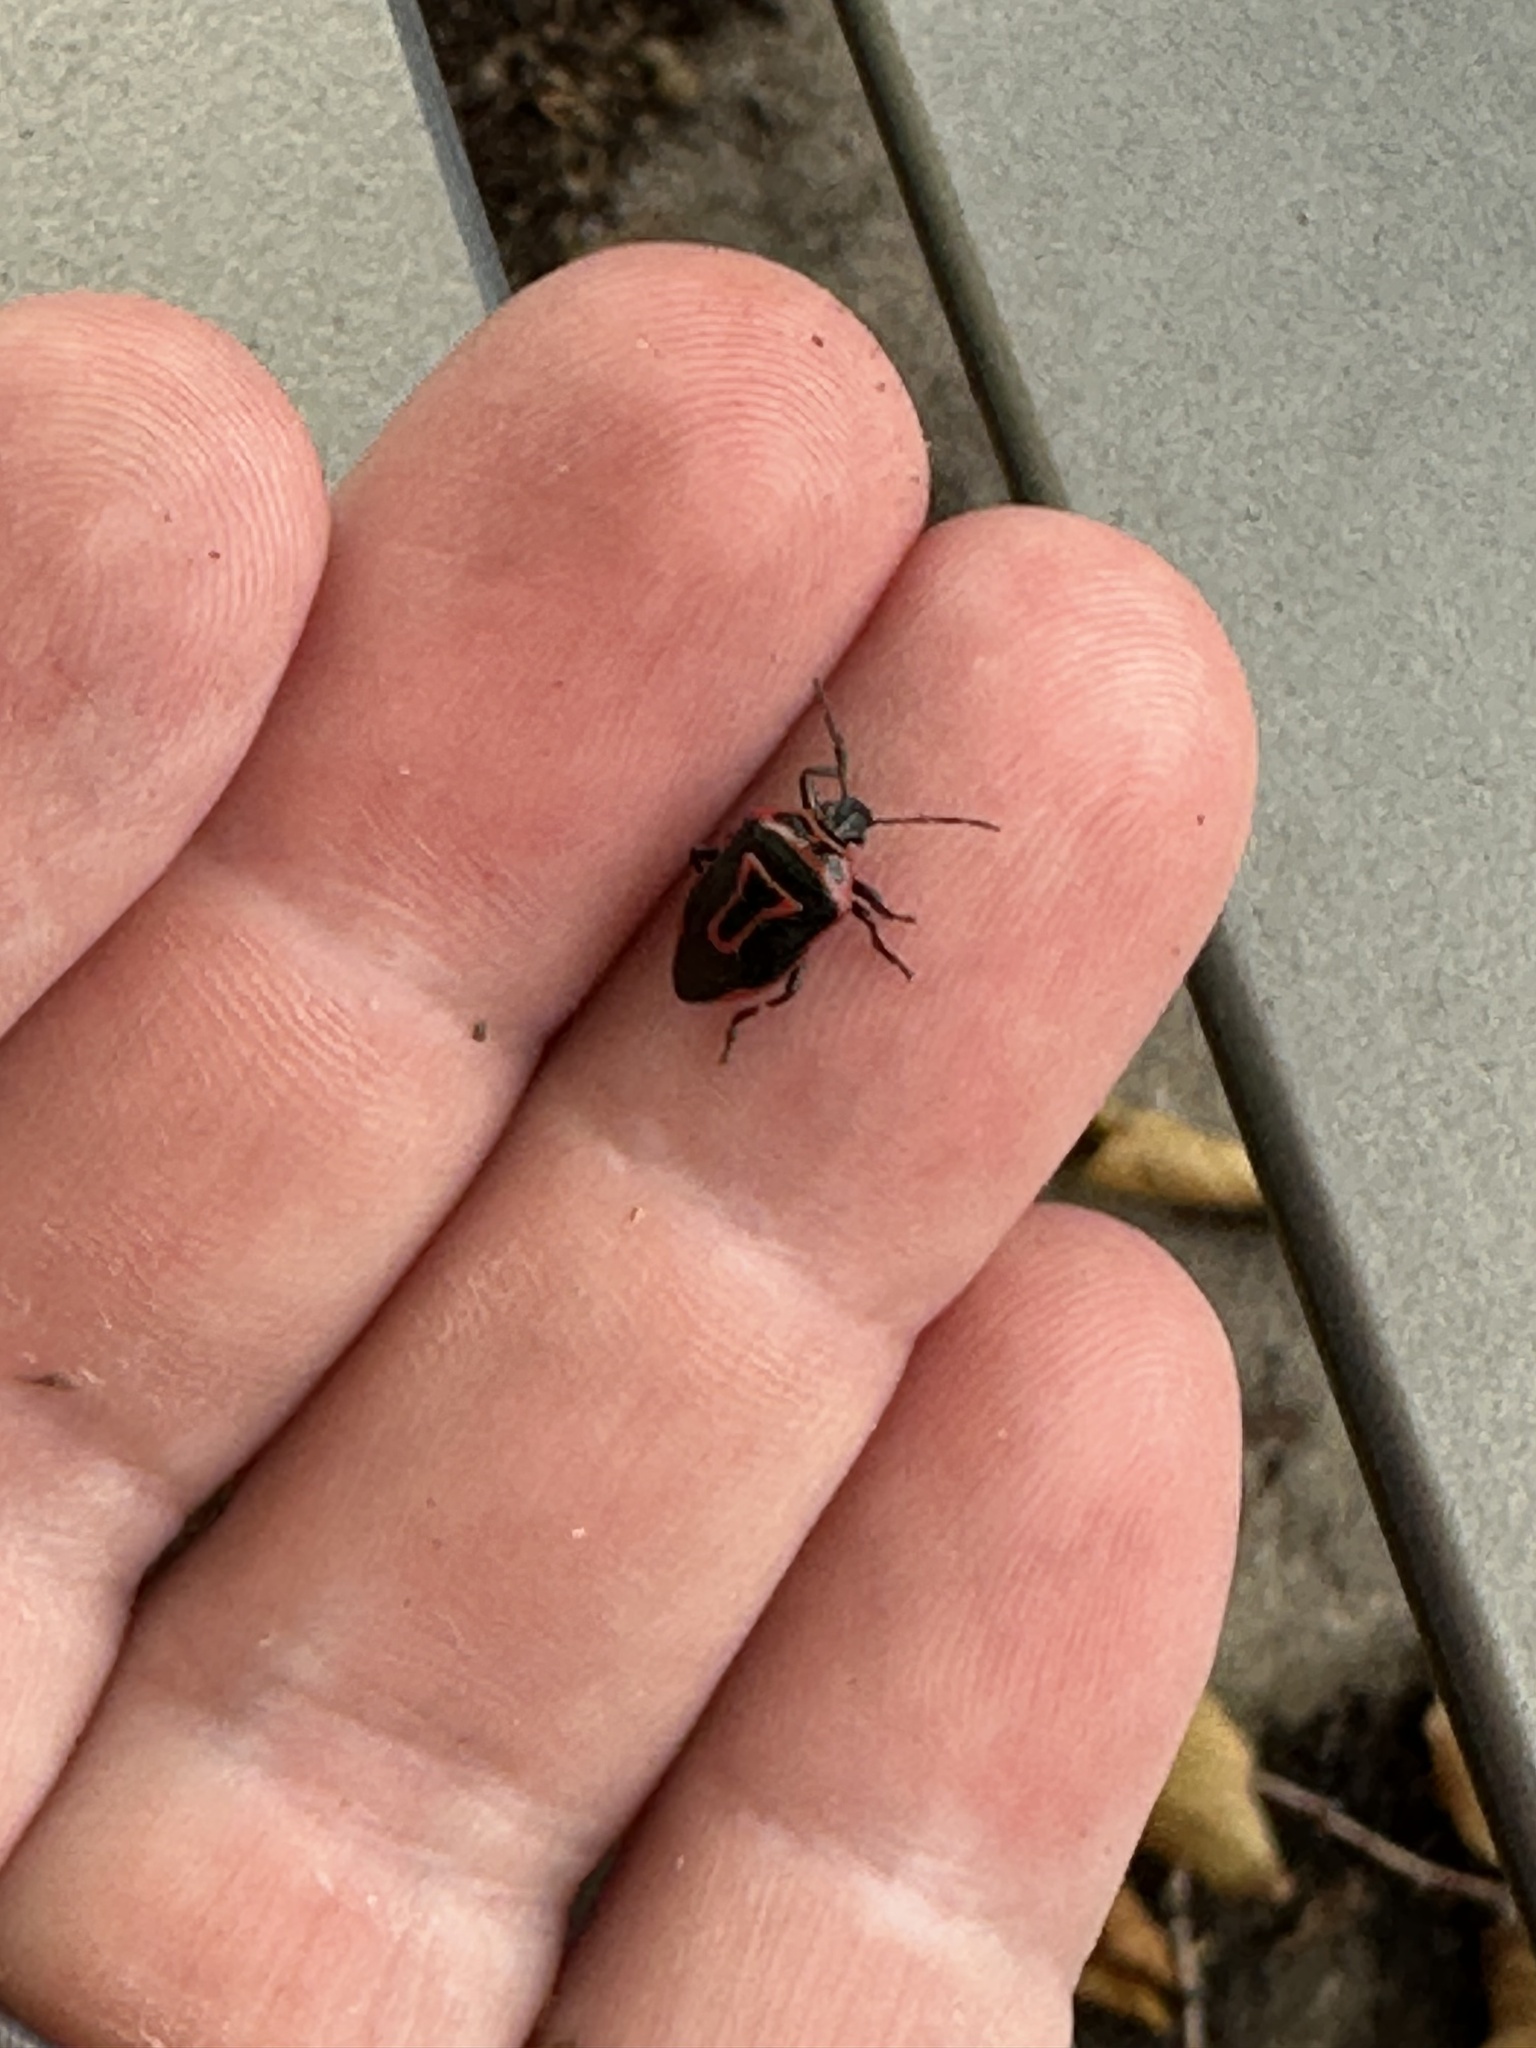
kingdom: Animalia
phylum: Arthropoda
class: Insecta
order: Hemiptera
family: Pentatomidae
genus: Perillus
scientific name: Perillus bioculatus
